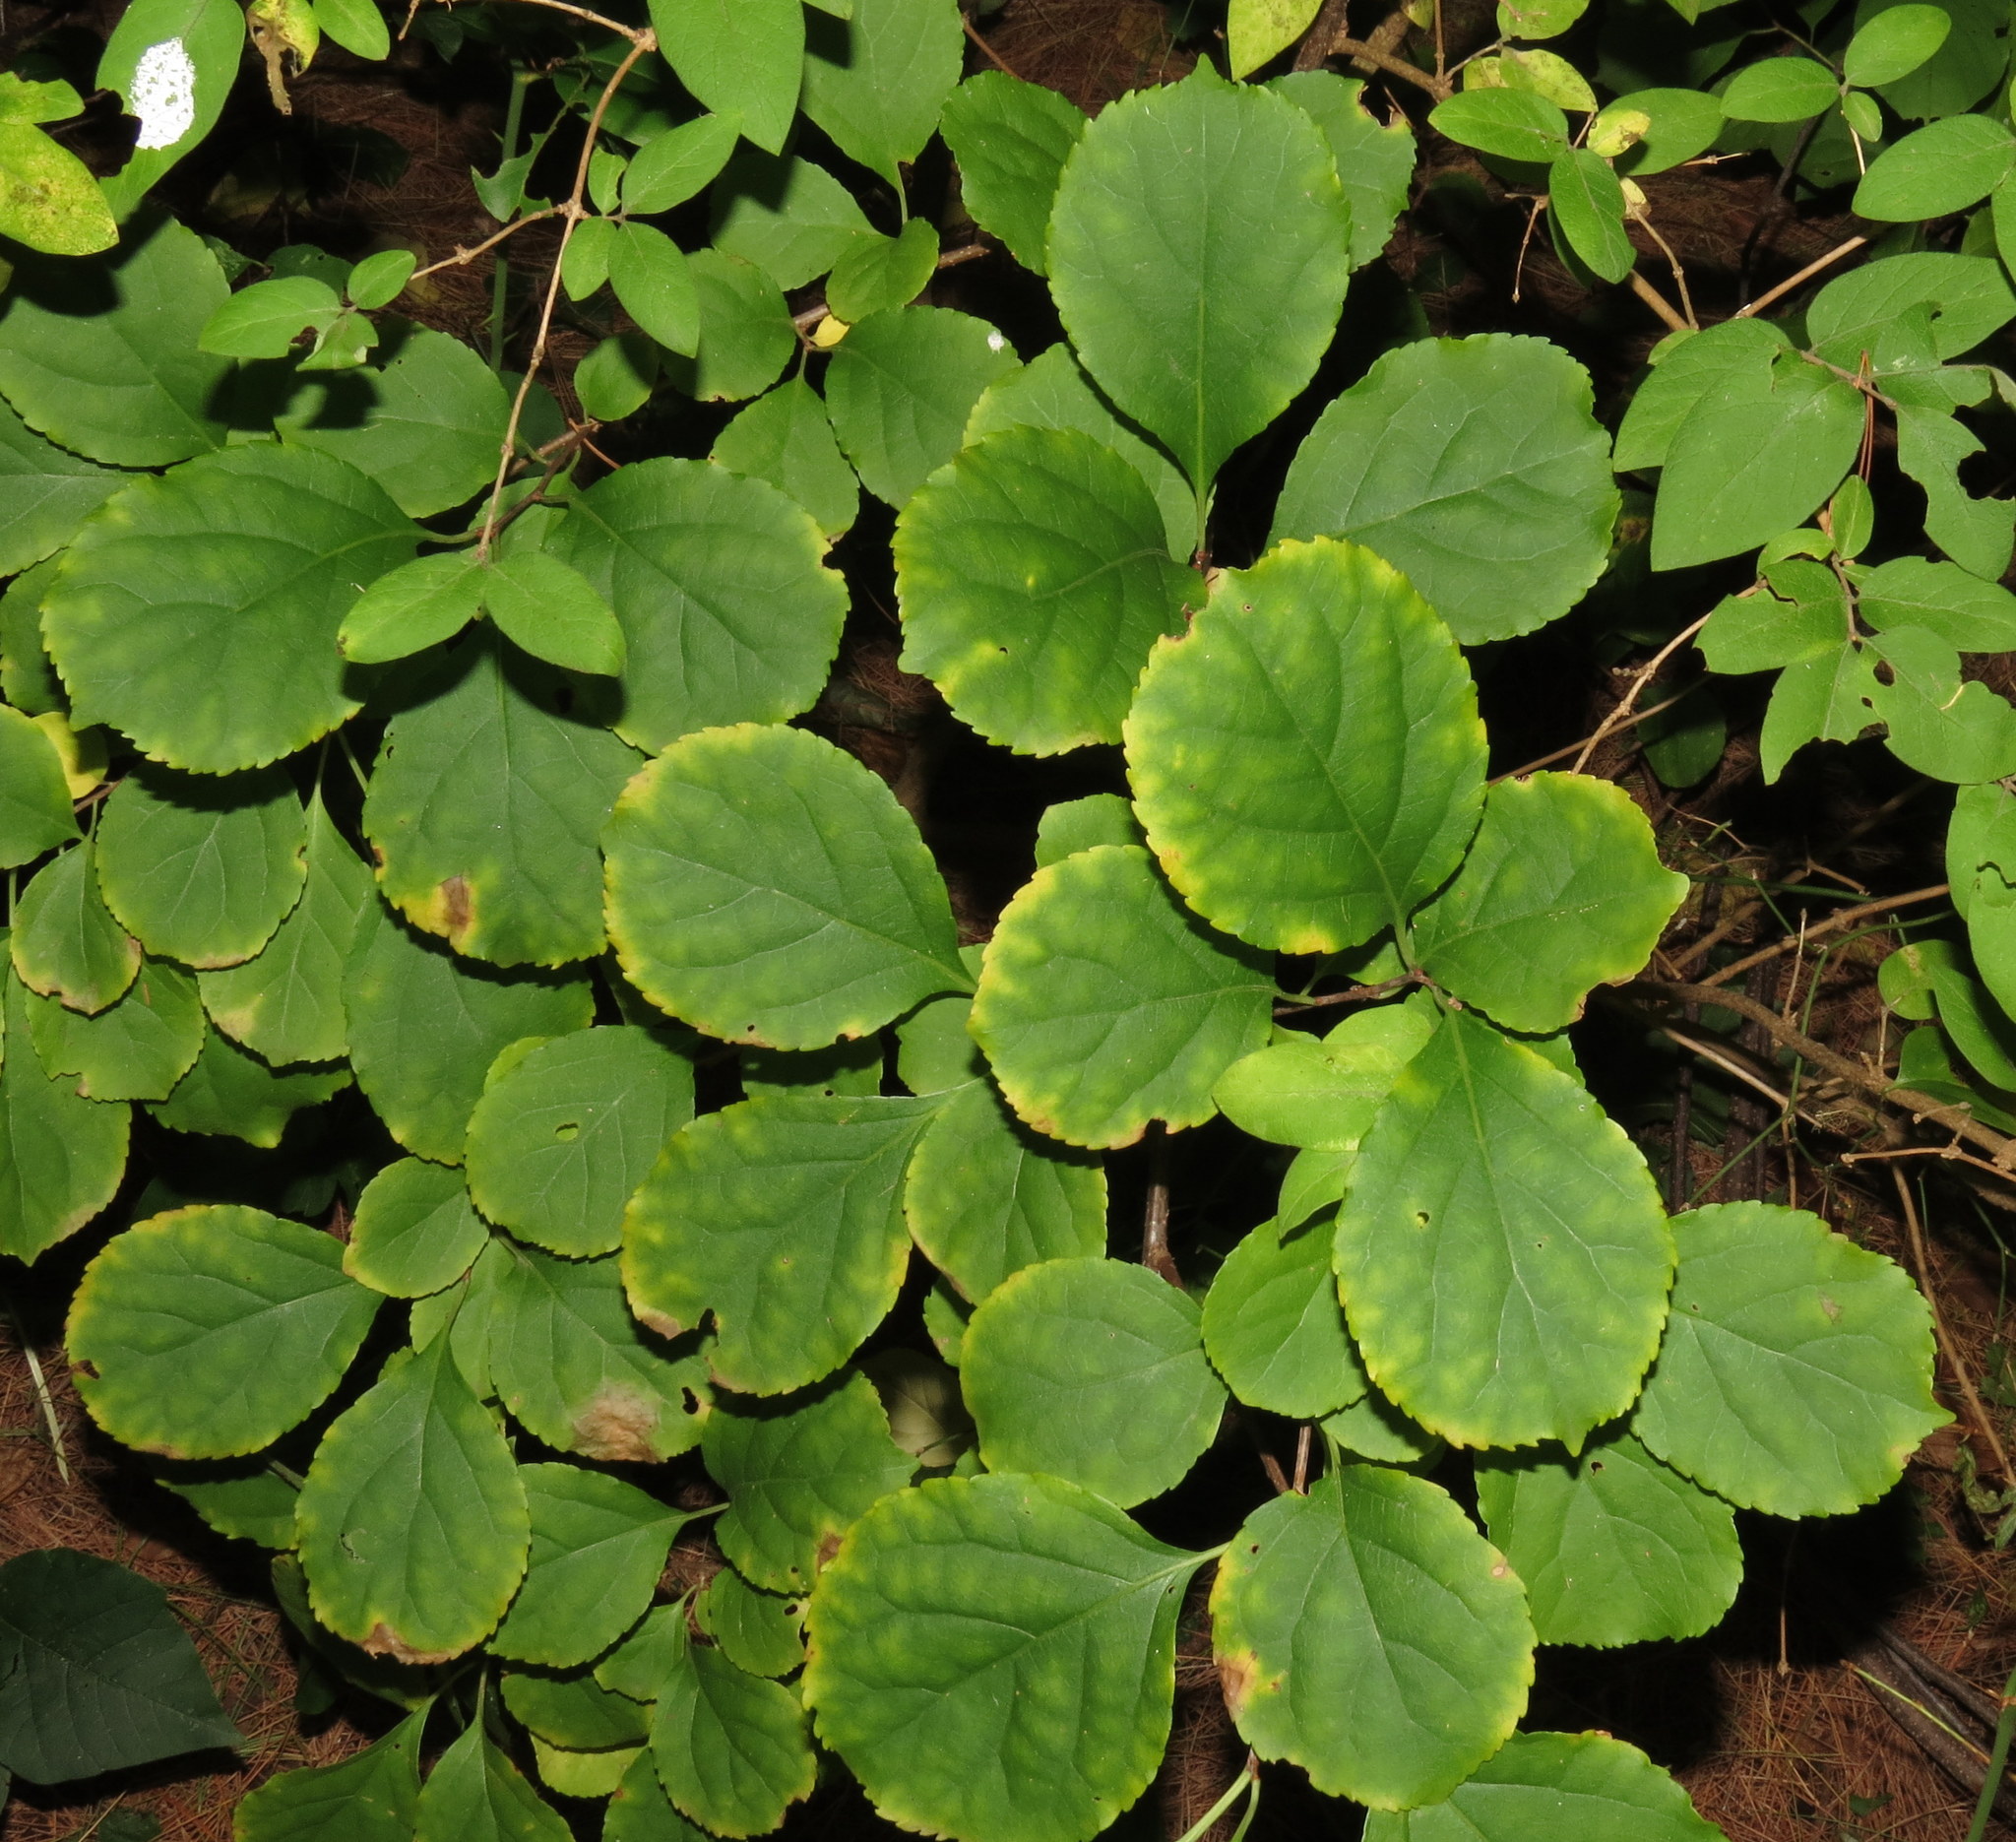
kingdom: Plantae
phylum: Tracheophyta
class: Magnoliopsida
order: Celastrales
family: Celastraceae
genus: Celastrus
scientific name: Celastrus orbiculatus
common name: Oriental bittersweet
